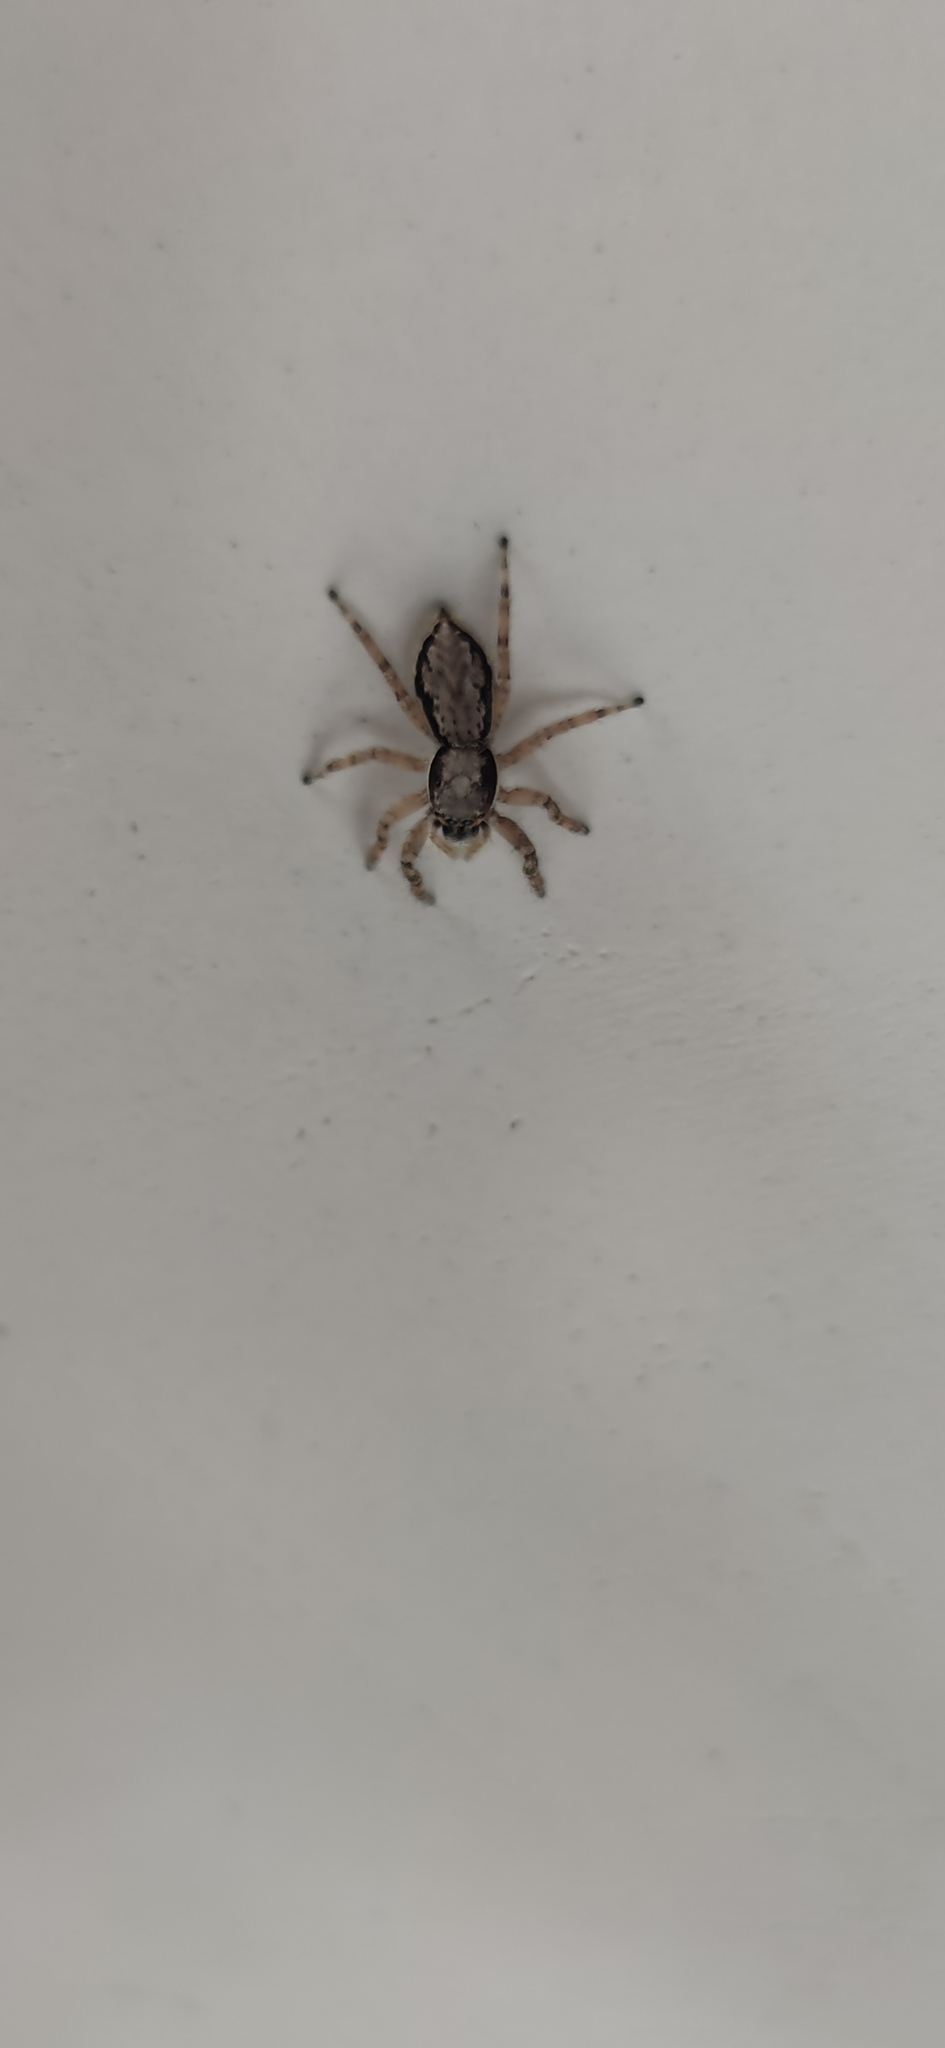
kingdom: Animalia
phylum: Arthropoda
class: Arachnida
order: Araneae
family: Salticidae
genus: Menemerus
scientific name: Menemerus bivittatus
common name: Gray wall jumper
